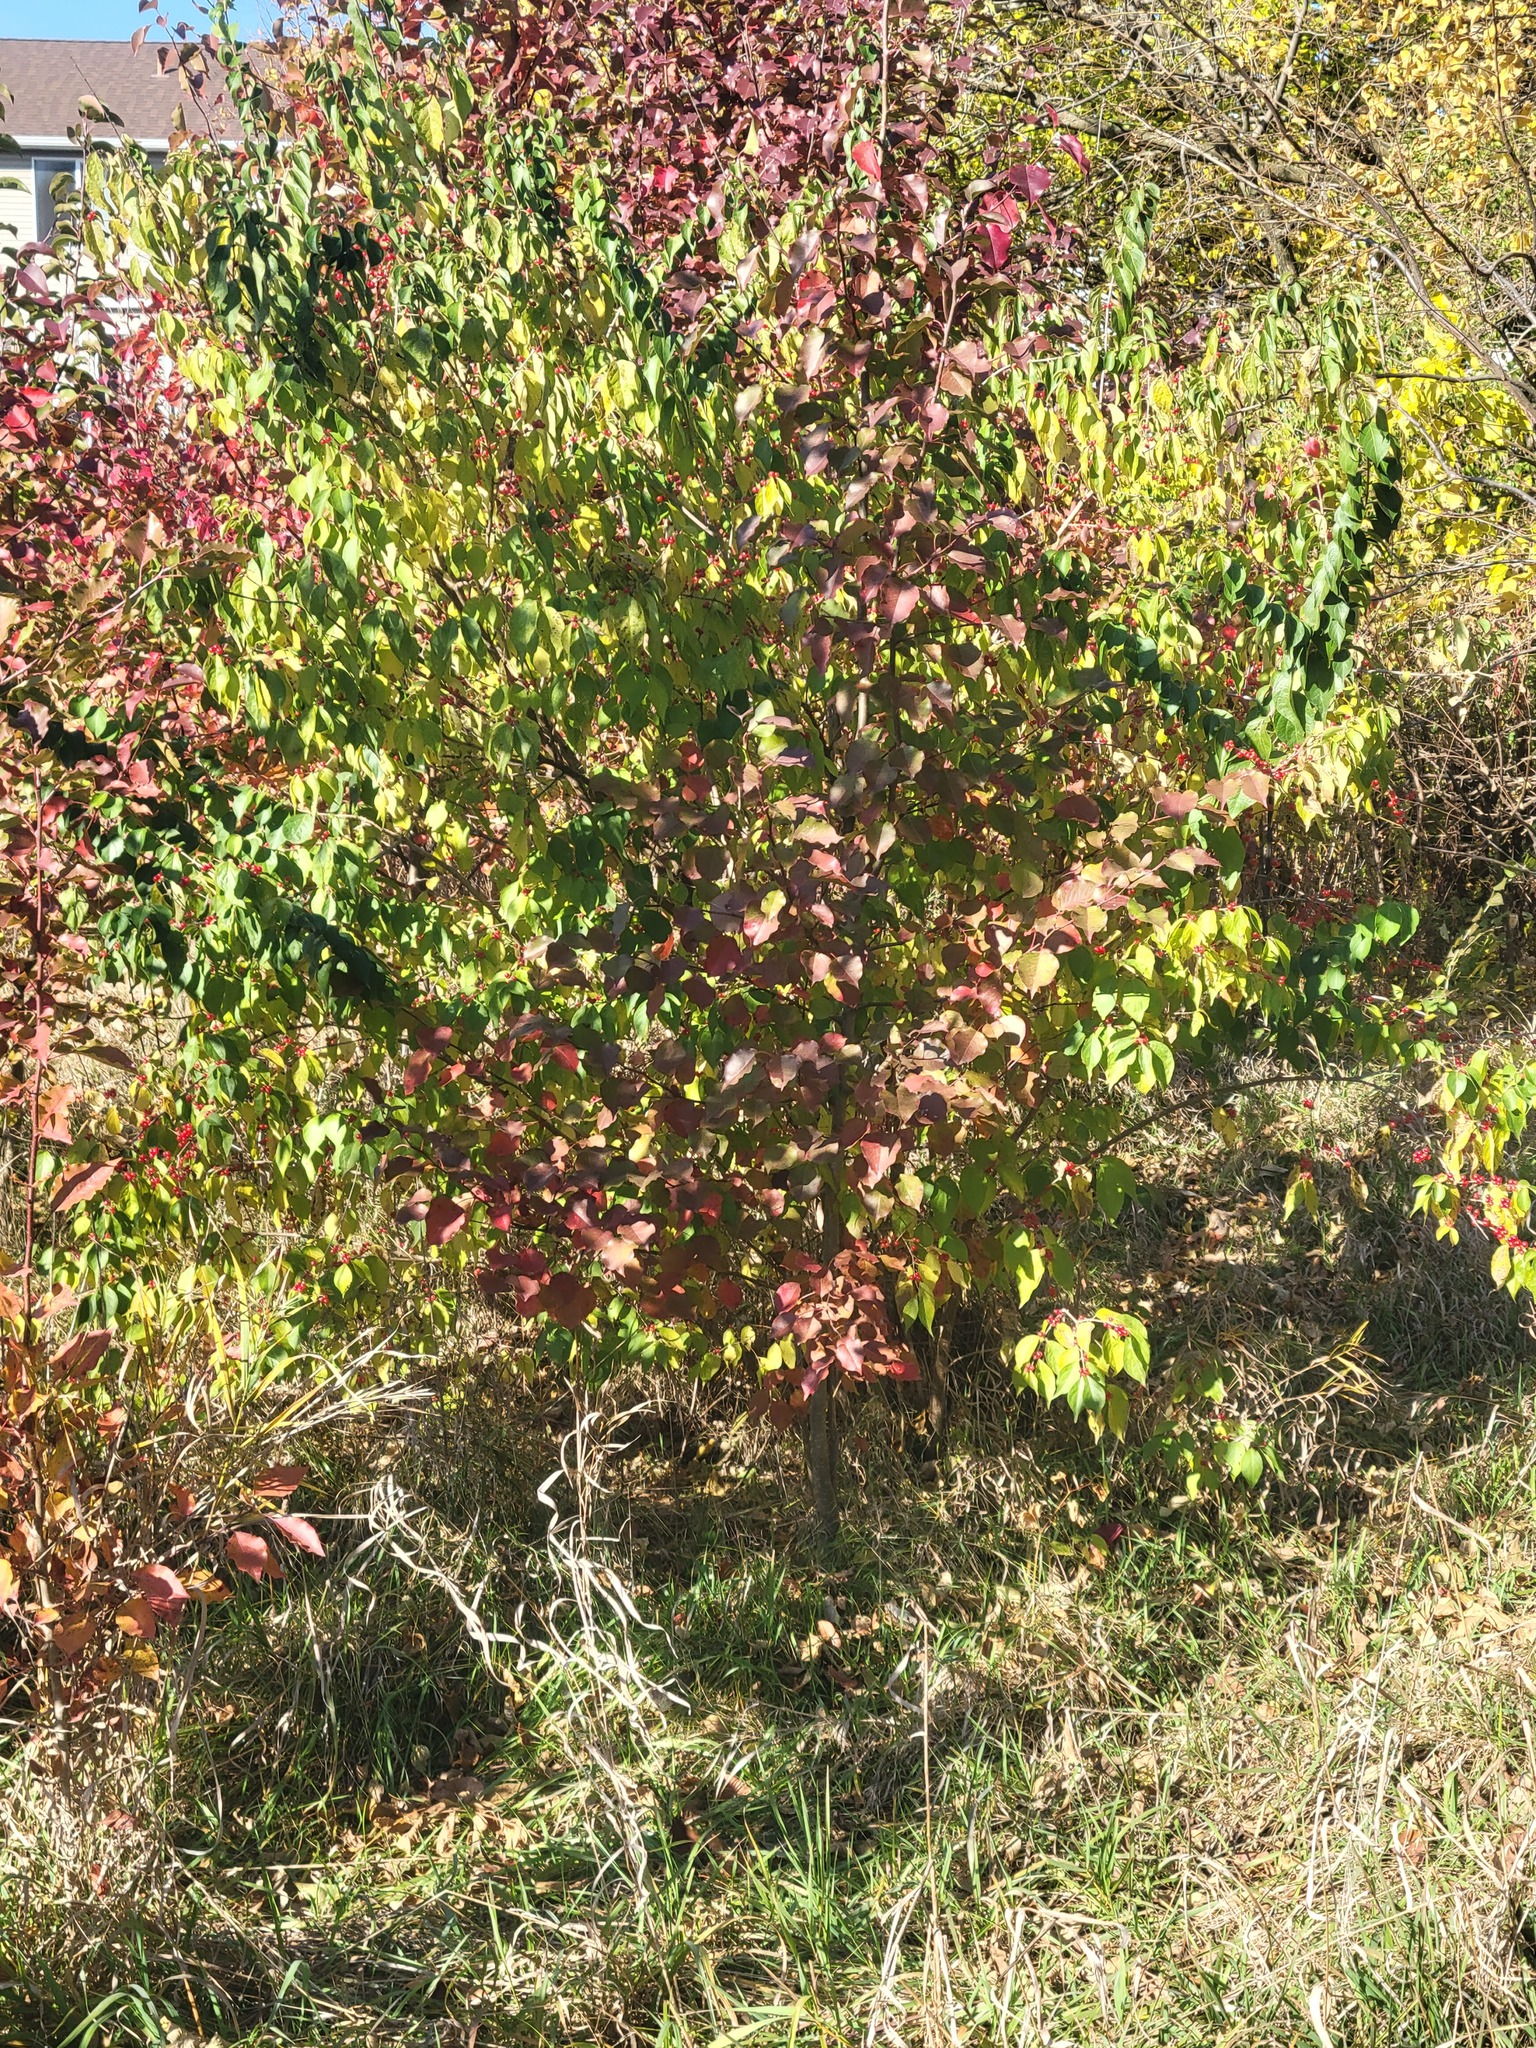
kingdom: Plantae
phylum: Tracheophyta
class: Magnoliopsida
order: Dipsacales
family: Caprifoliaceae
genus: Lonicera
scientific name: Lonicera maackii
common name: Amur honeysuckle
